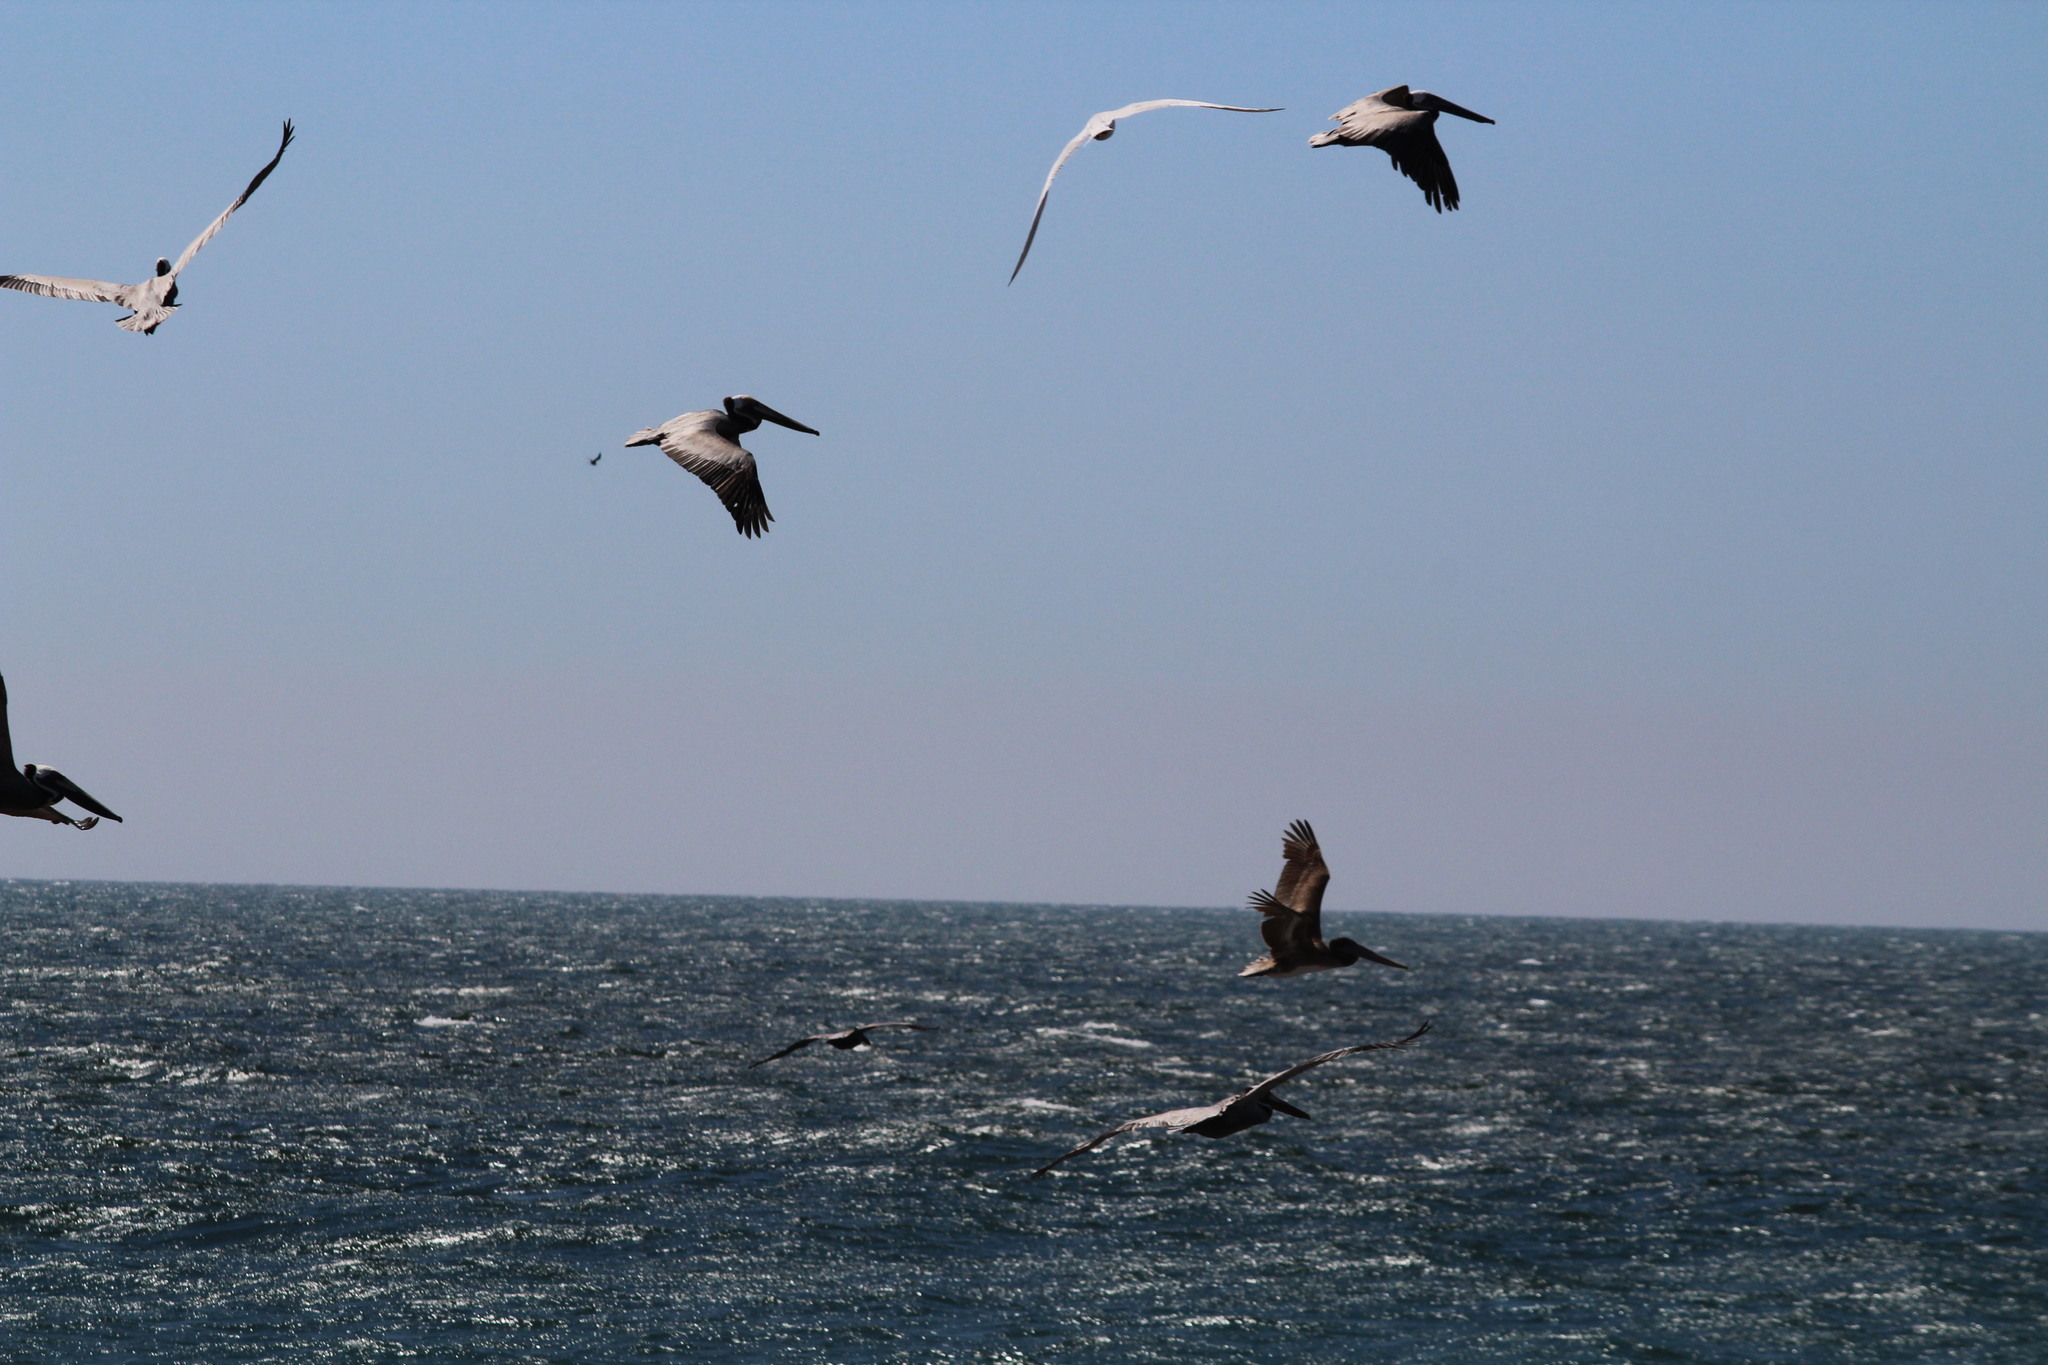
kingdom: Animalia
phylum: Chordata
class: Aves
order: Pelecaniformes
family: Pelecanidae
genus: Pelecanus
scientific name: Pelecanus occidentalis
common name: Brown pelican
